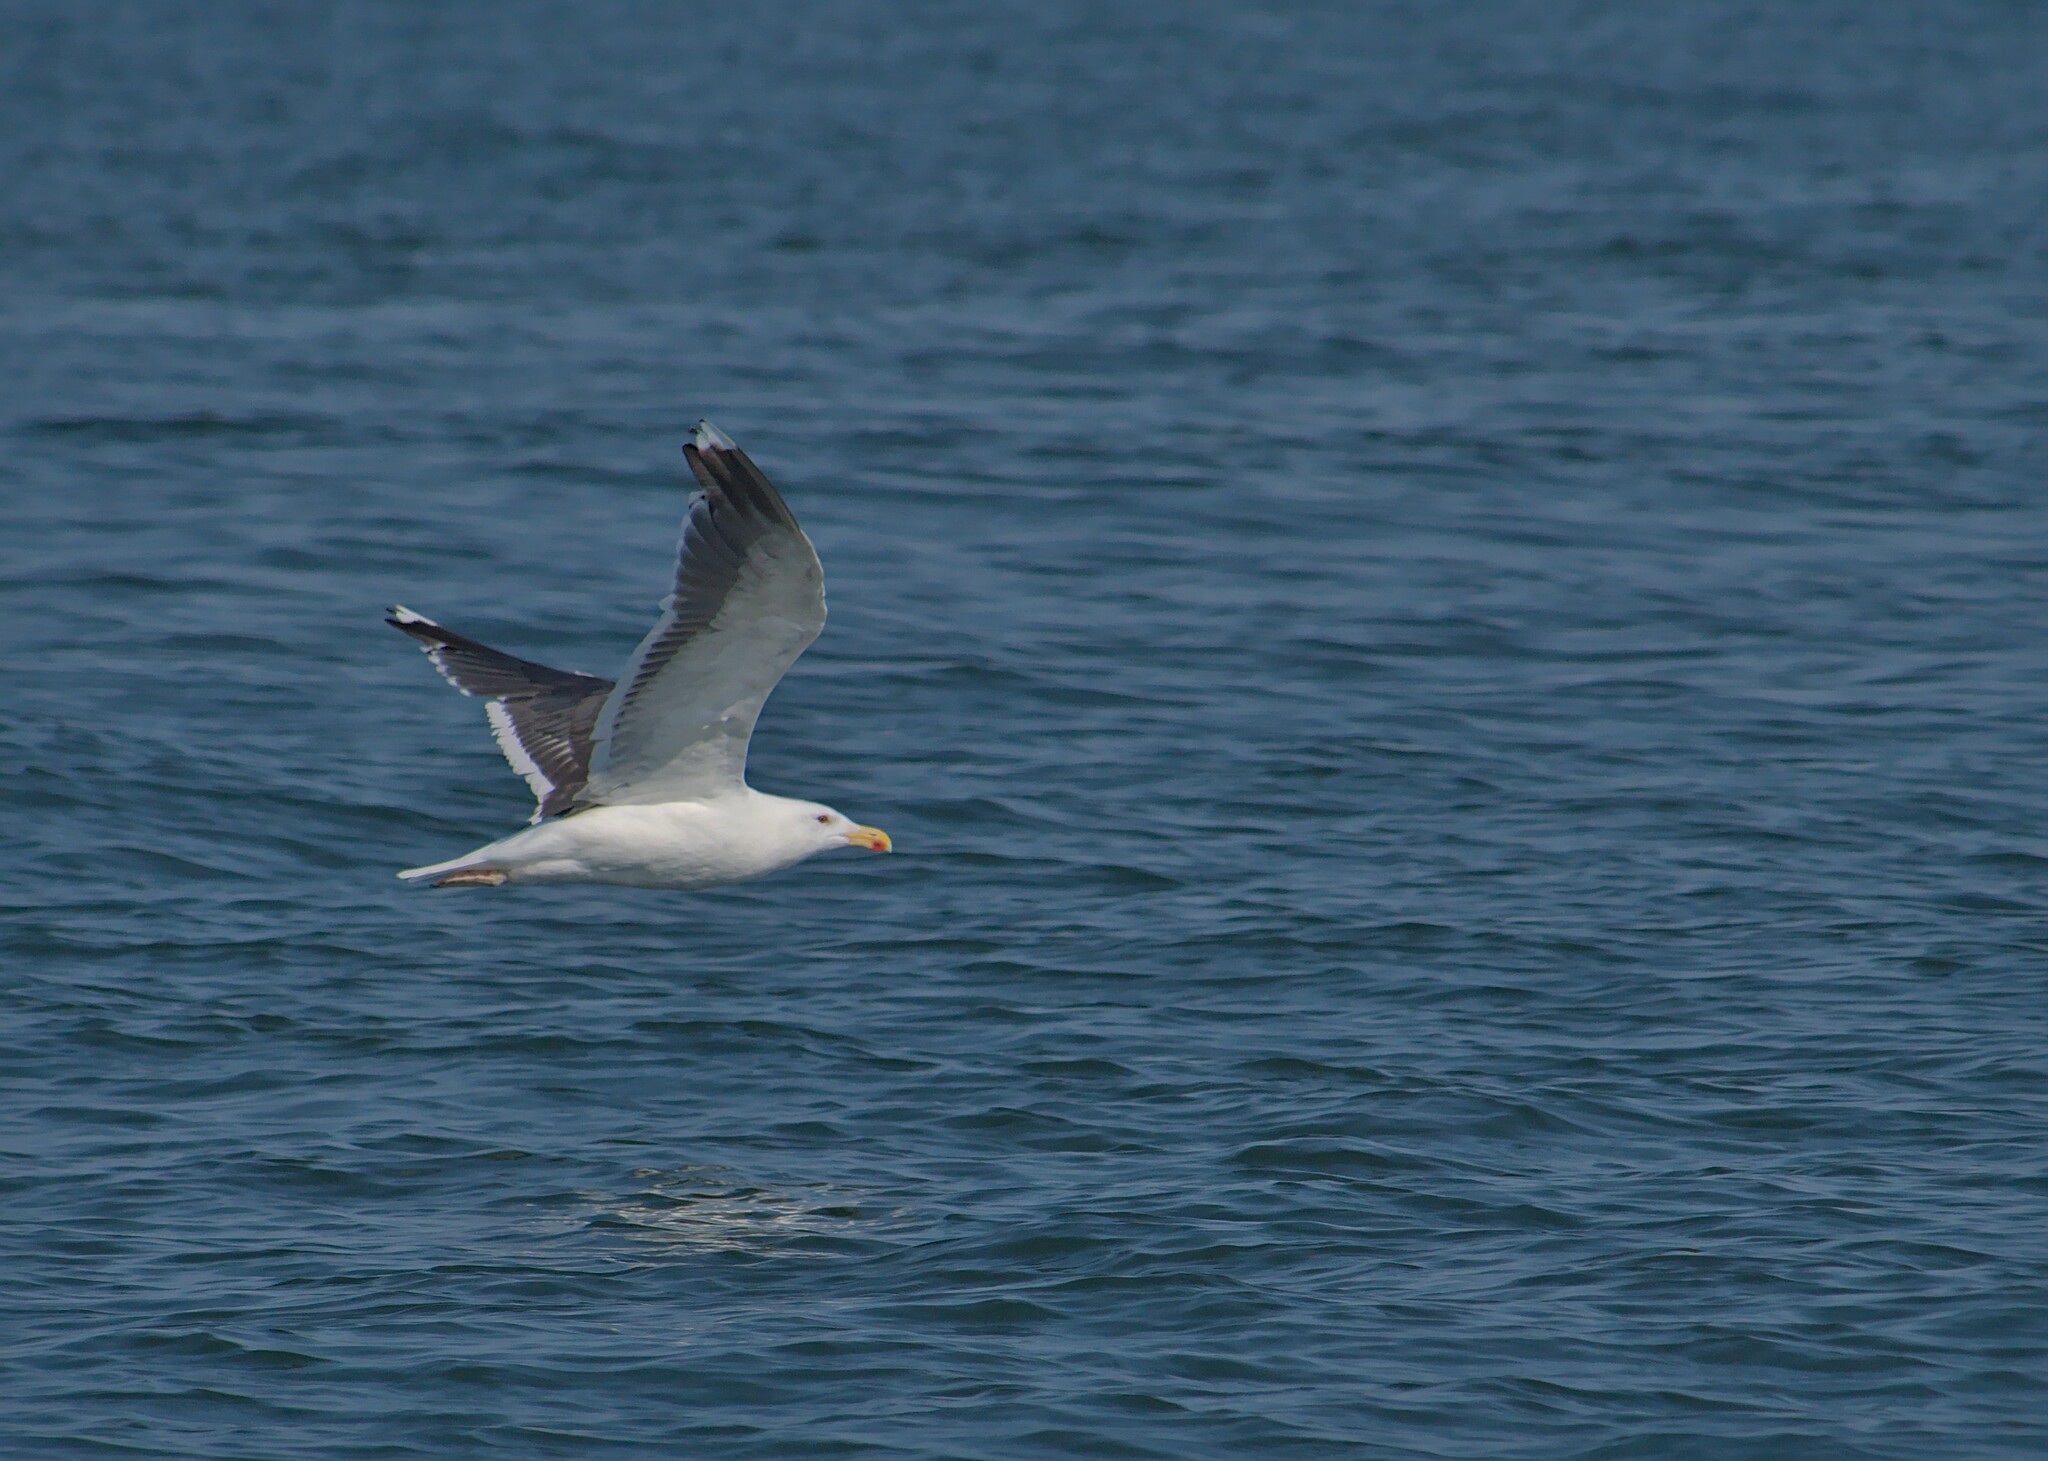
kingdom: Animalia
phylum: Chordata
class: Aves
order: Charadriiformes
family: Laridae
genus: Larus
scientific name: Larus marinus
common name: Great black-backed gull
